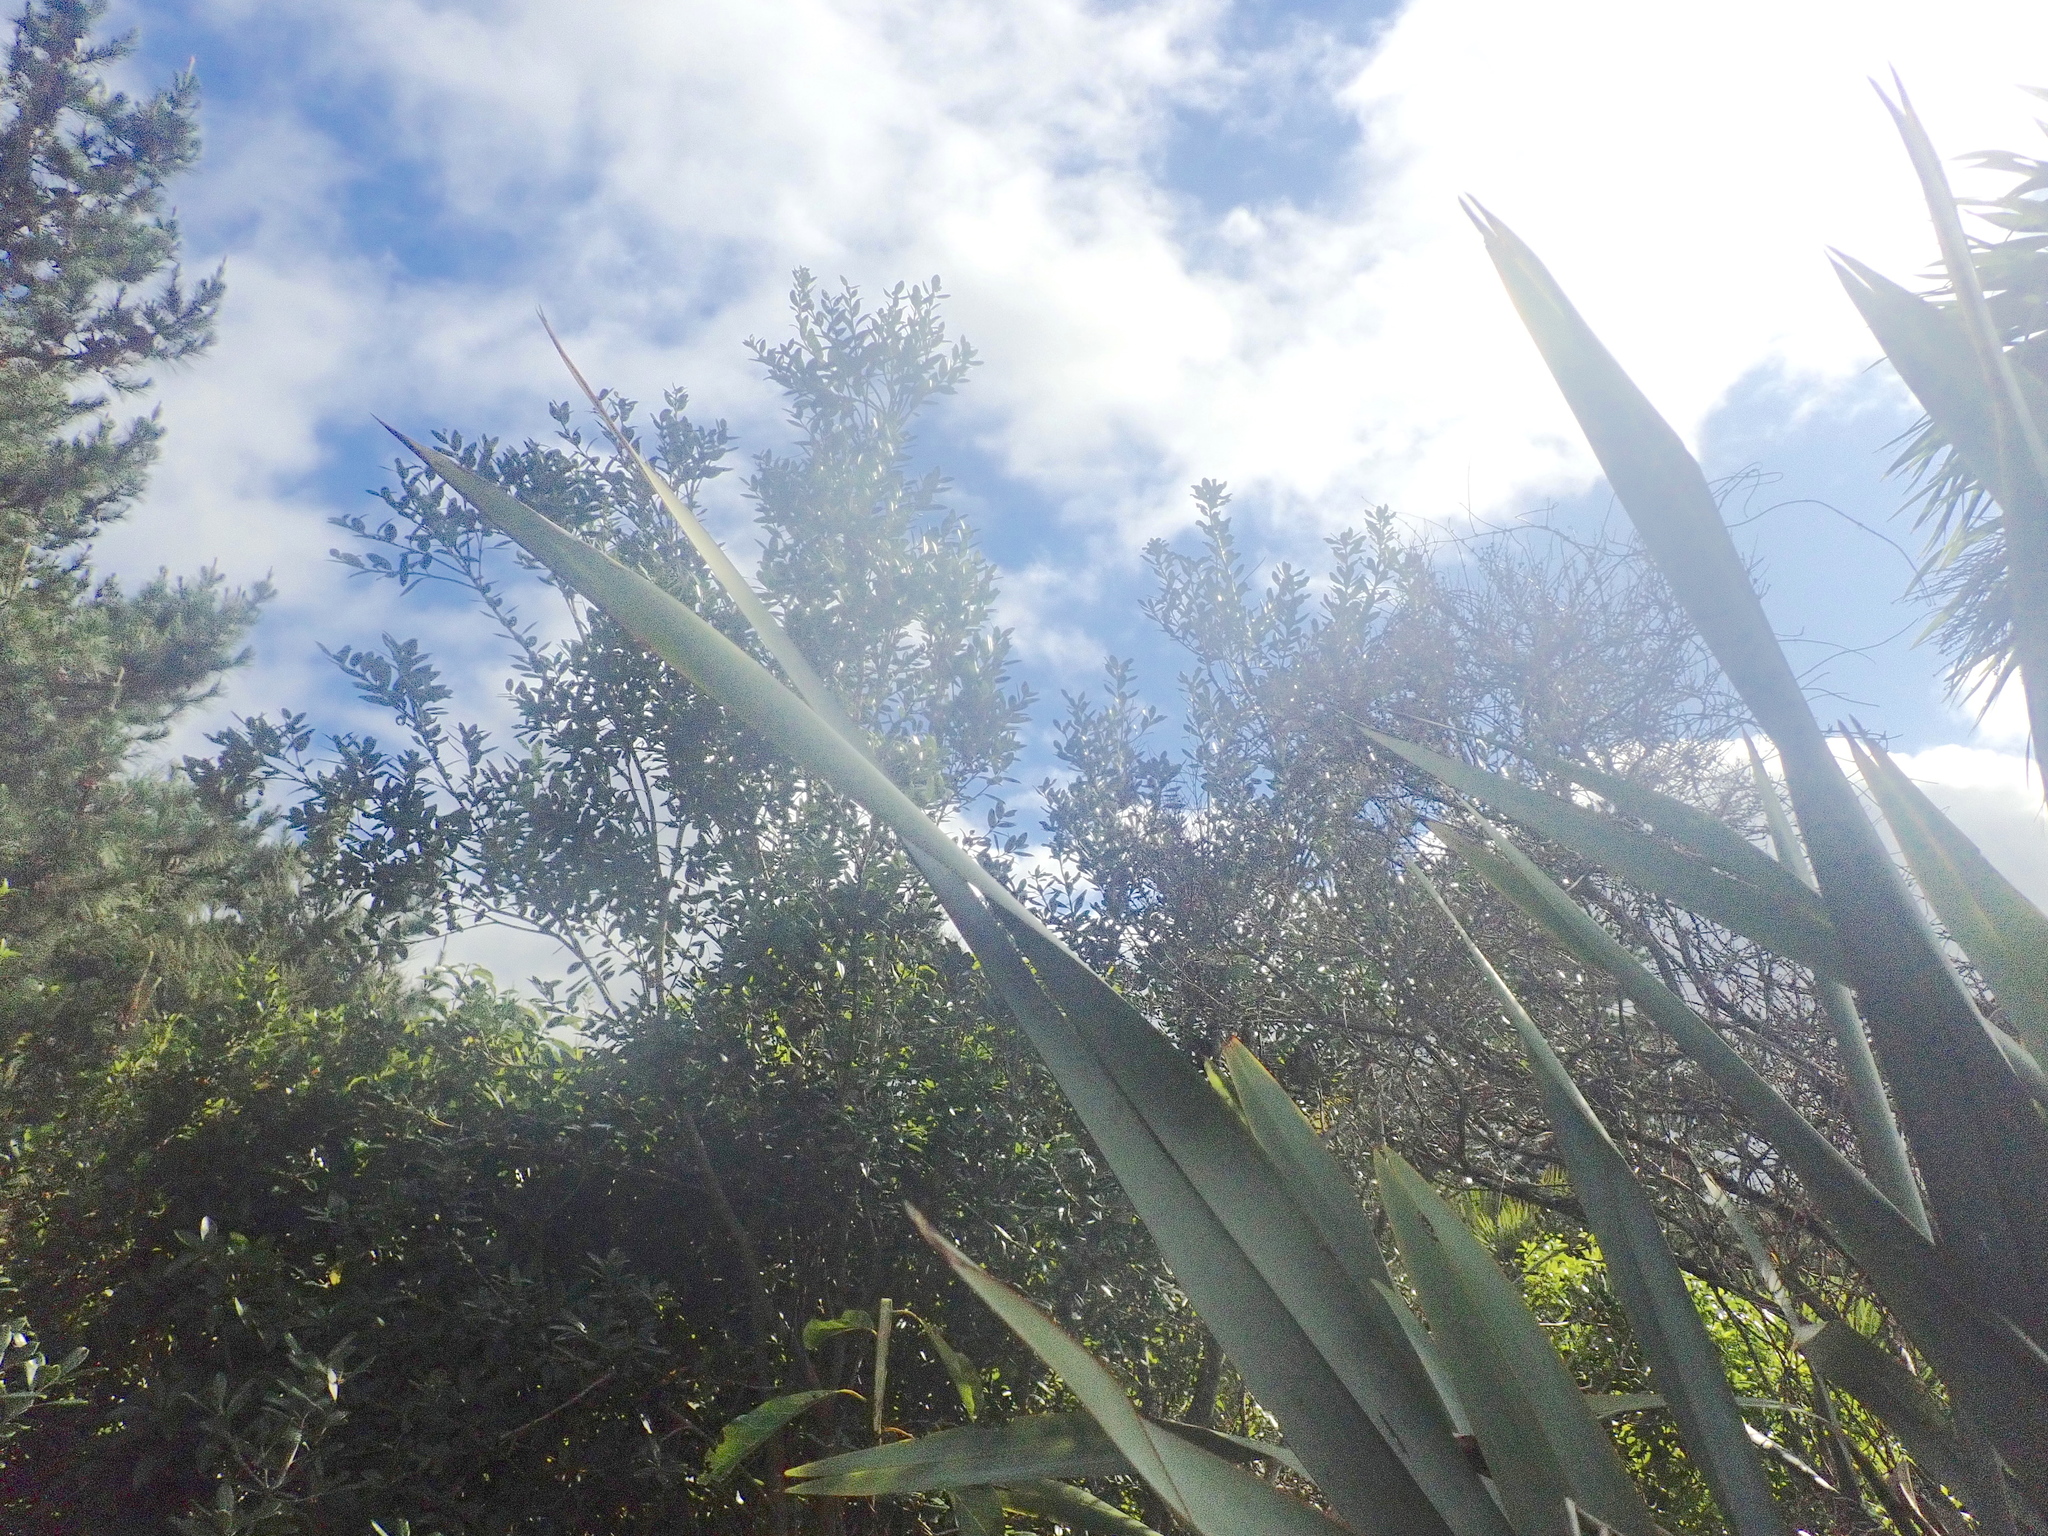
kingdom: Plantae
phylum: Tracheophyta
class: Magnoliopsida
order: Laurales
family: Lauraceae
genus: Persea
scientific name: Persea americana
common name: Avocado
